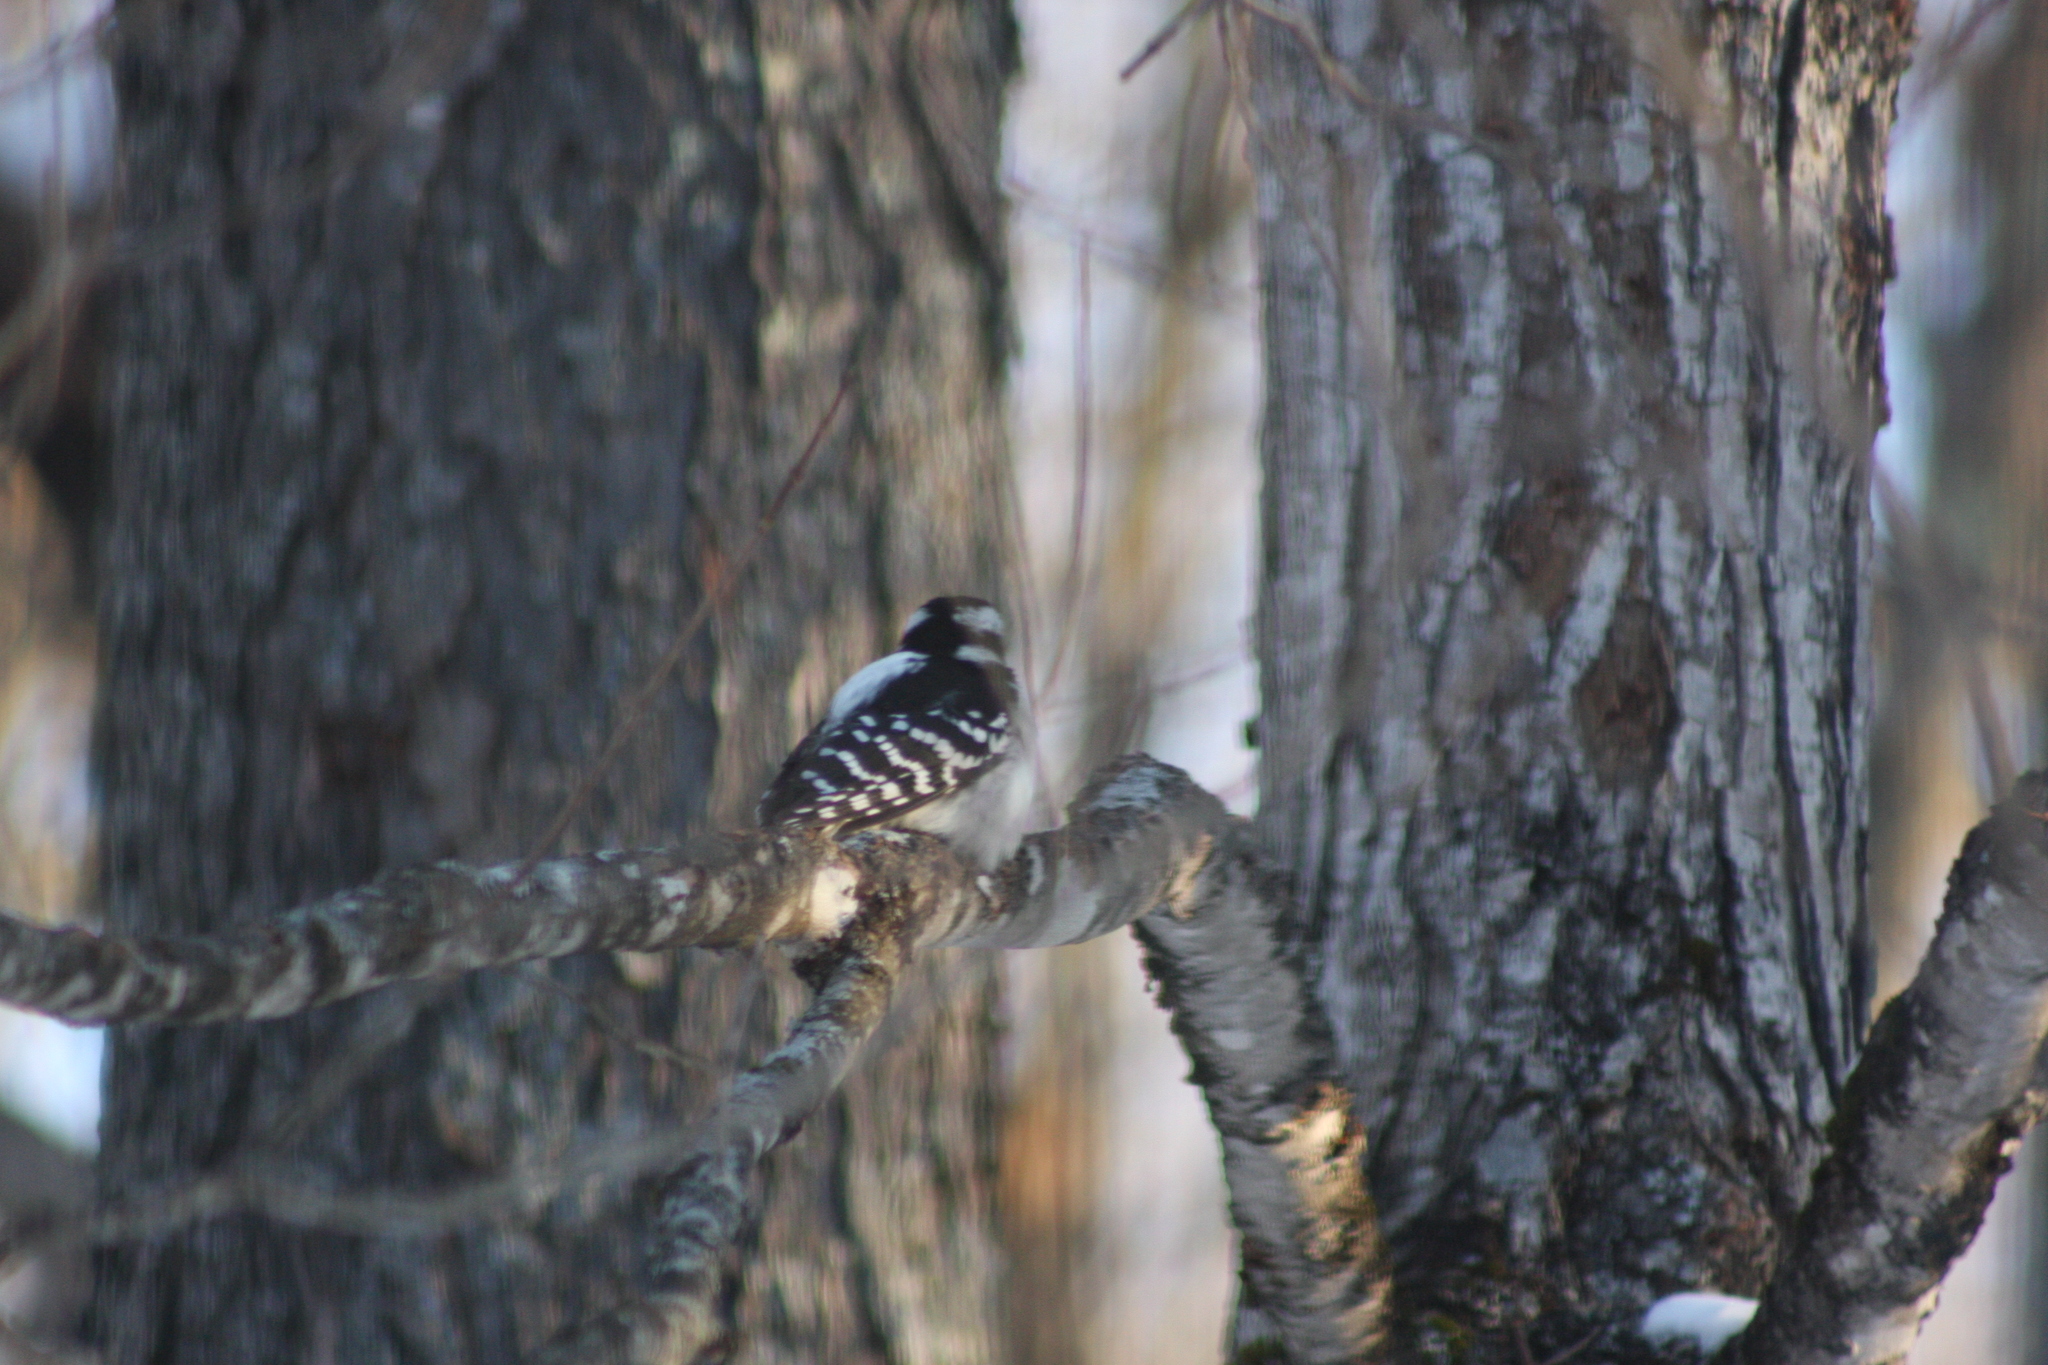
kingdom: Animalia
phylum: Chordata
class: Aves
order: Piciformes
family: Picidae
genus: Leuconotopicus
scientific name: Leuconotopicus villosus
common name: Hairy woodpecker
